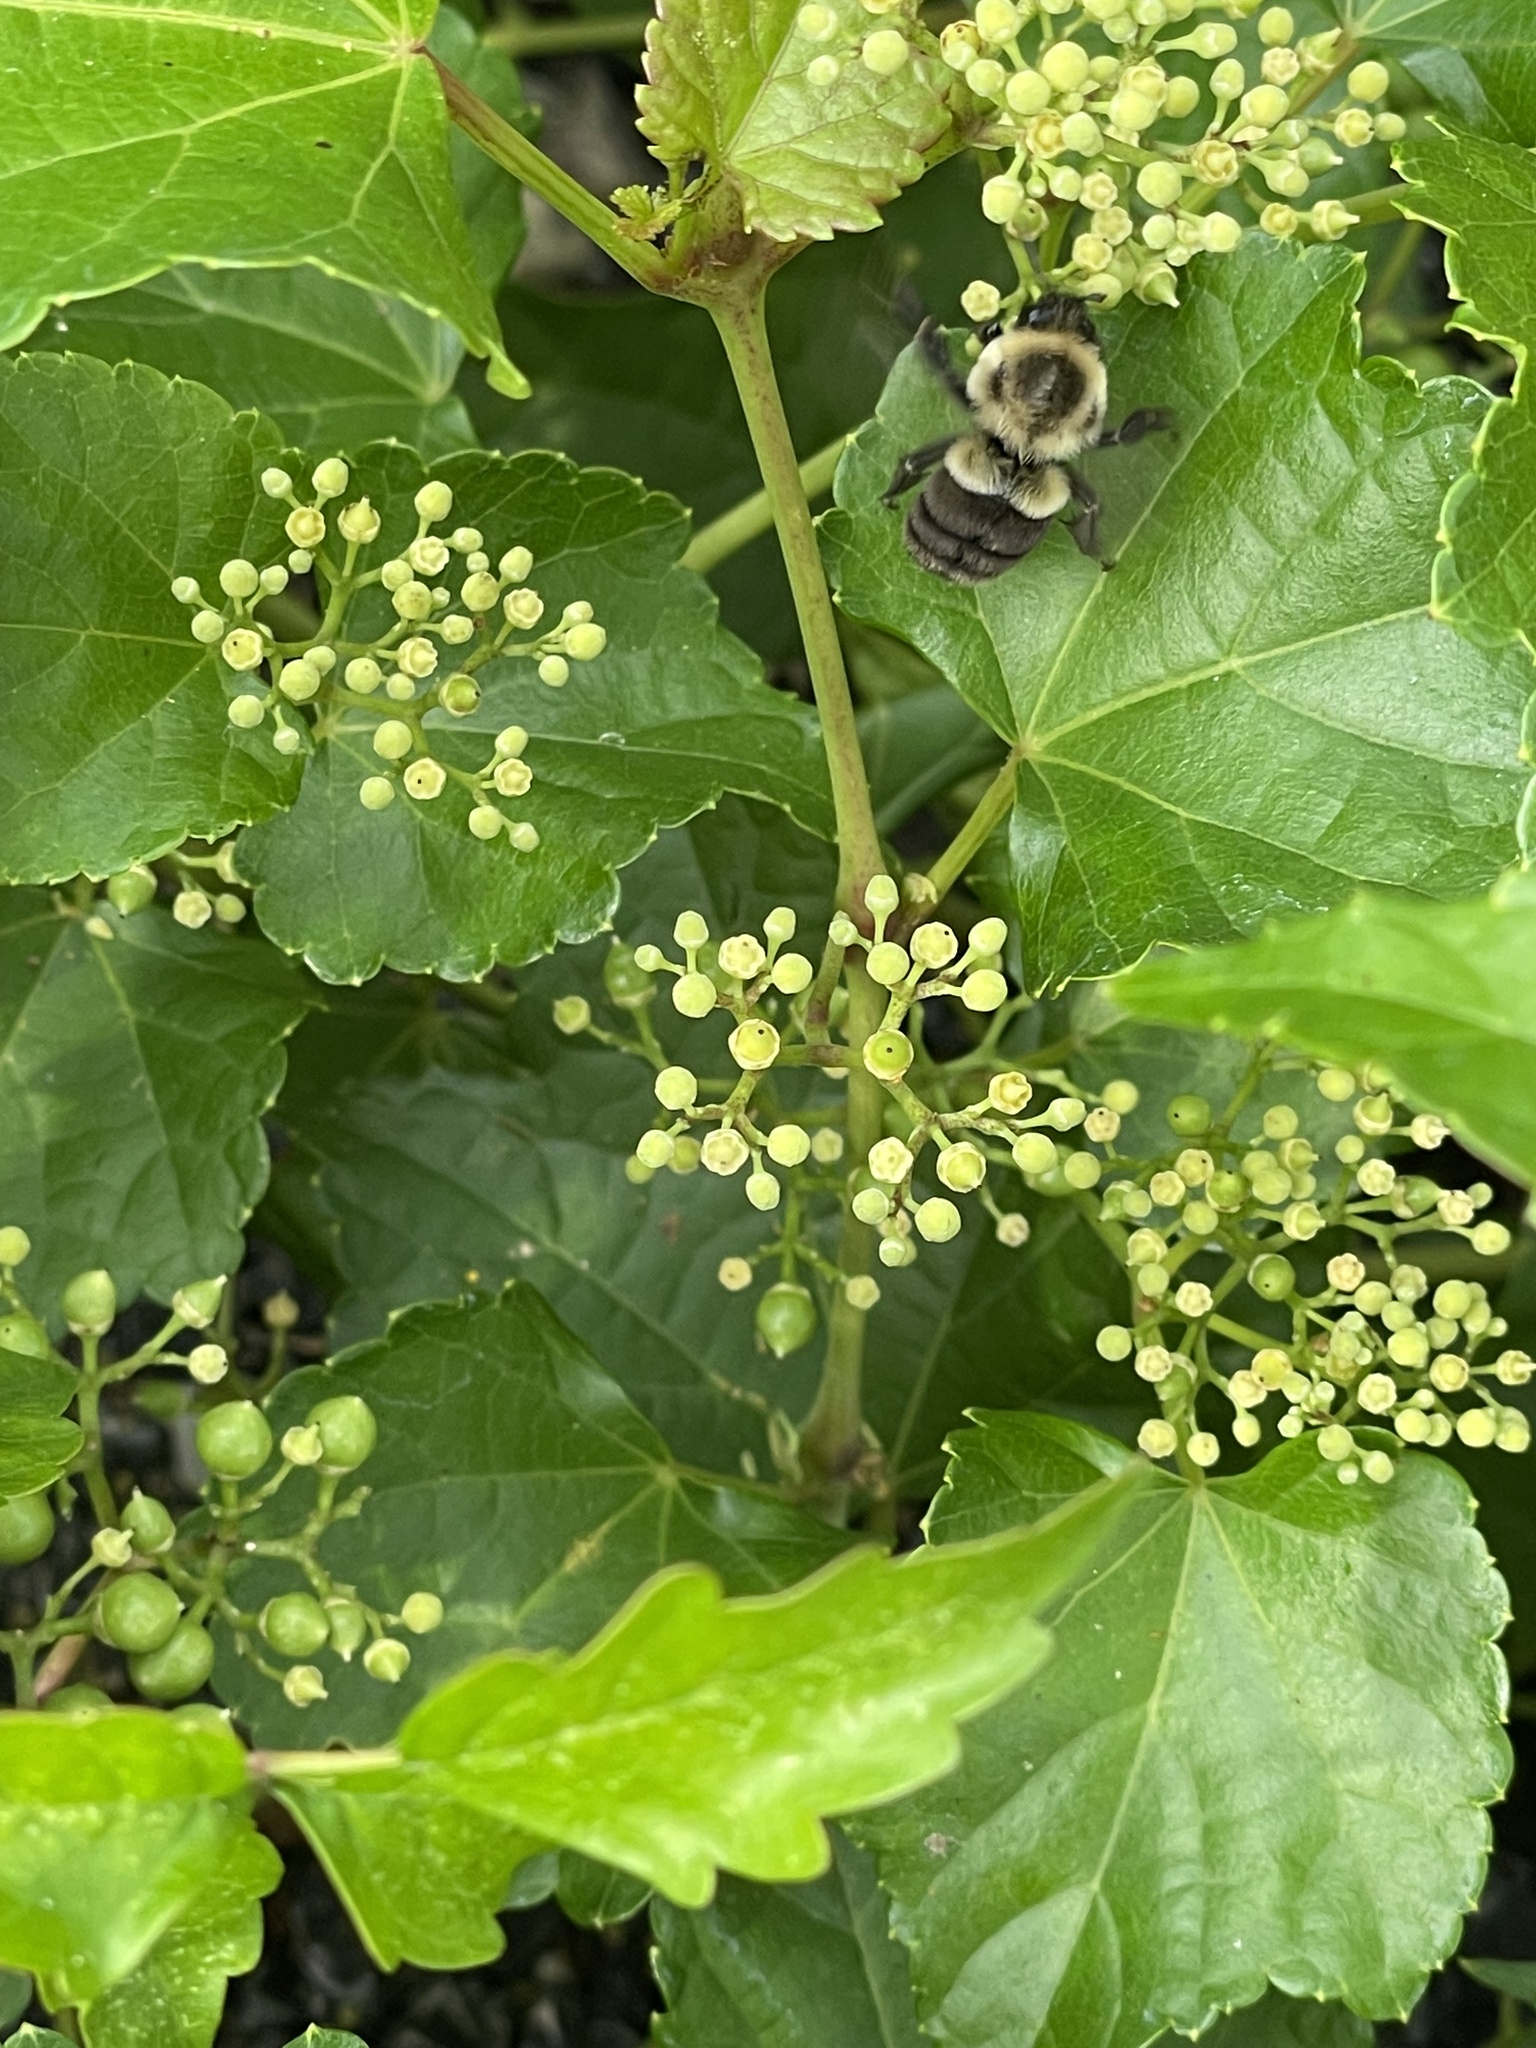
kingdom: Animalia
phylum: Arthropoda
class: Insecta
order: Hymenoptera
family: Apidae
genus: Bombus
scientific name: Bombus impatiens
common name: Common eastern bumble bee
